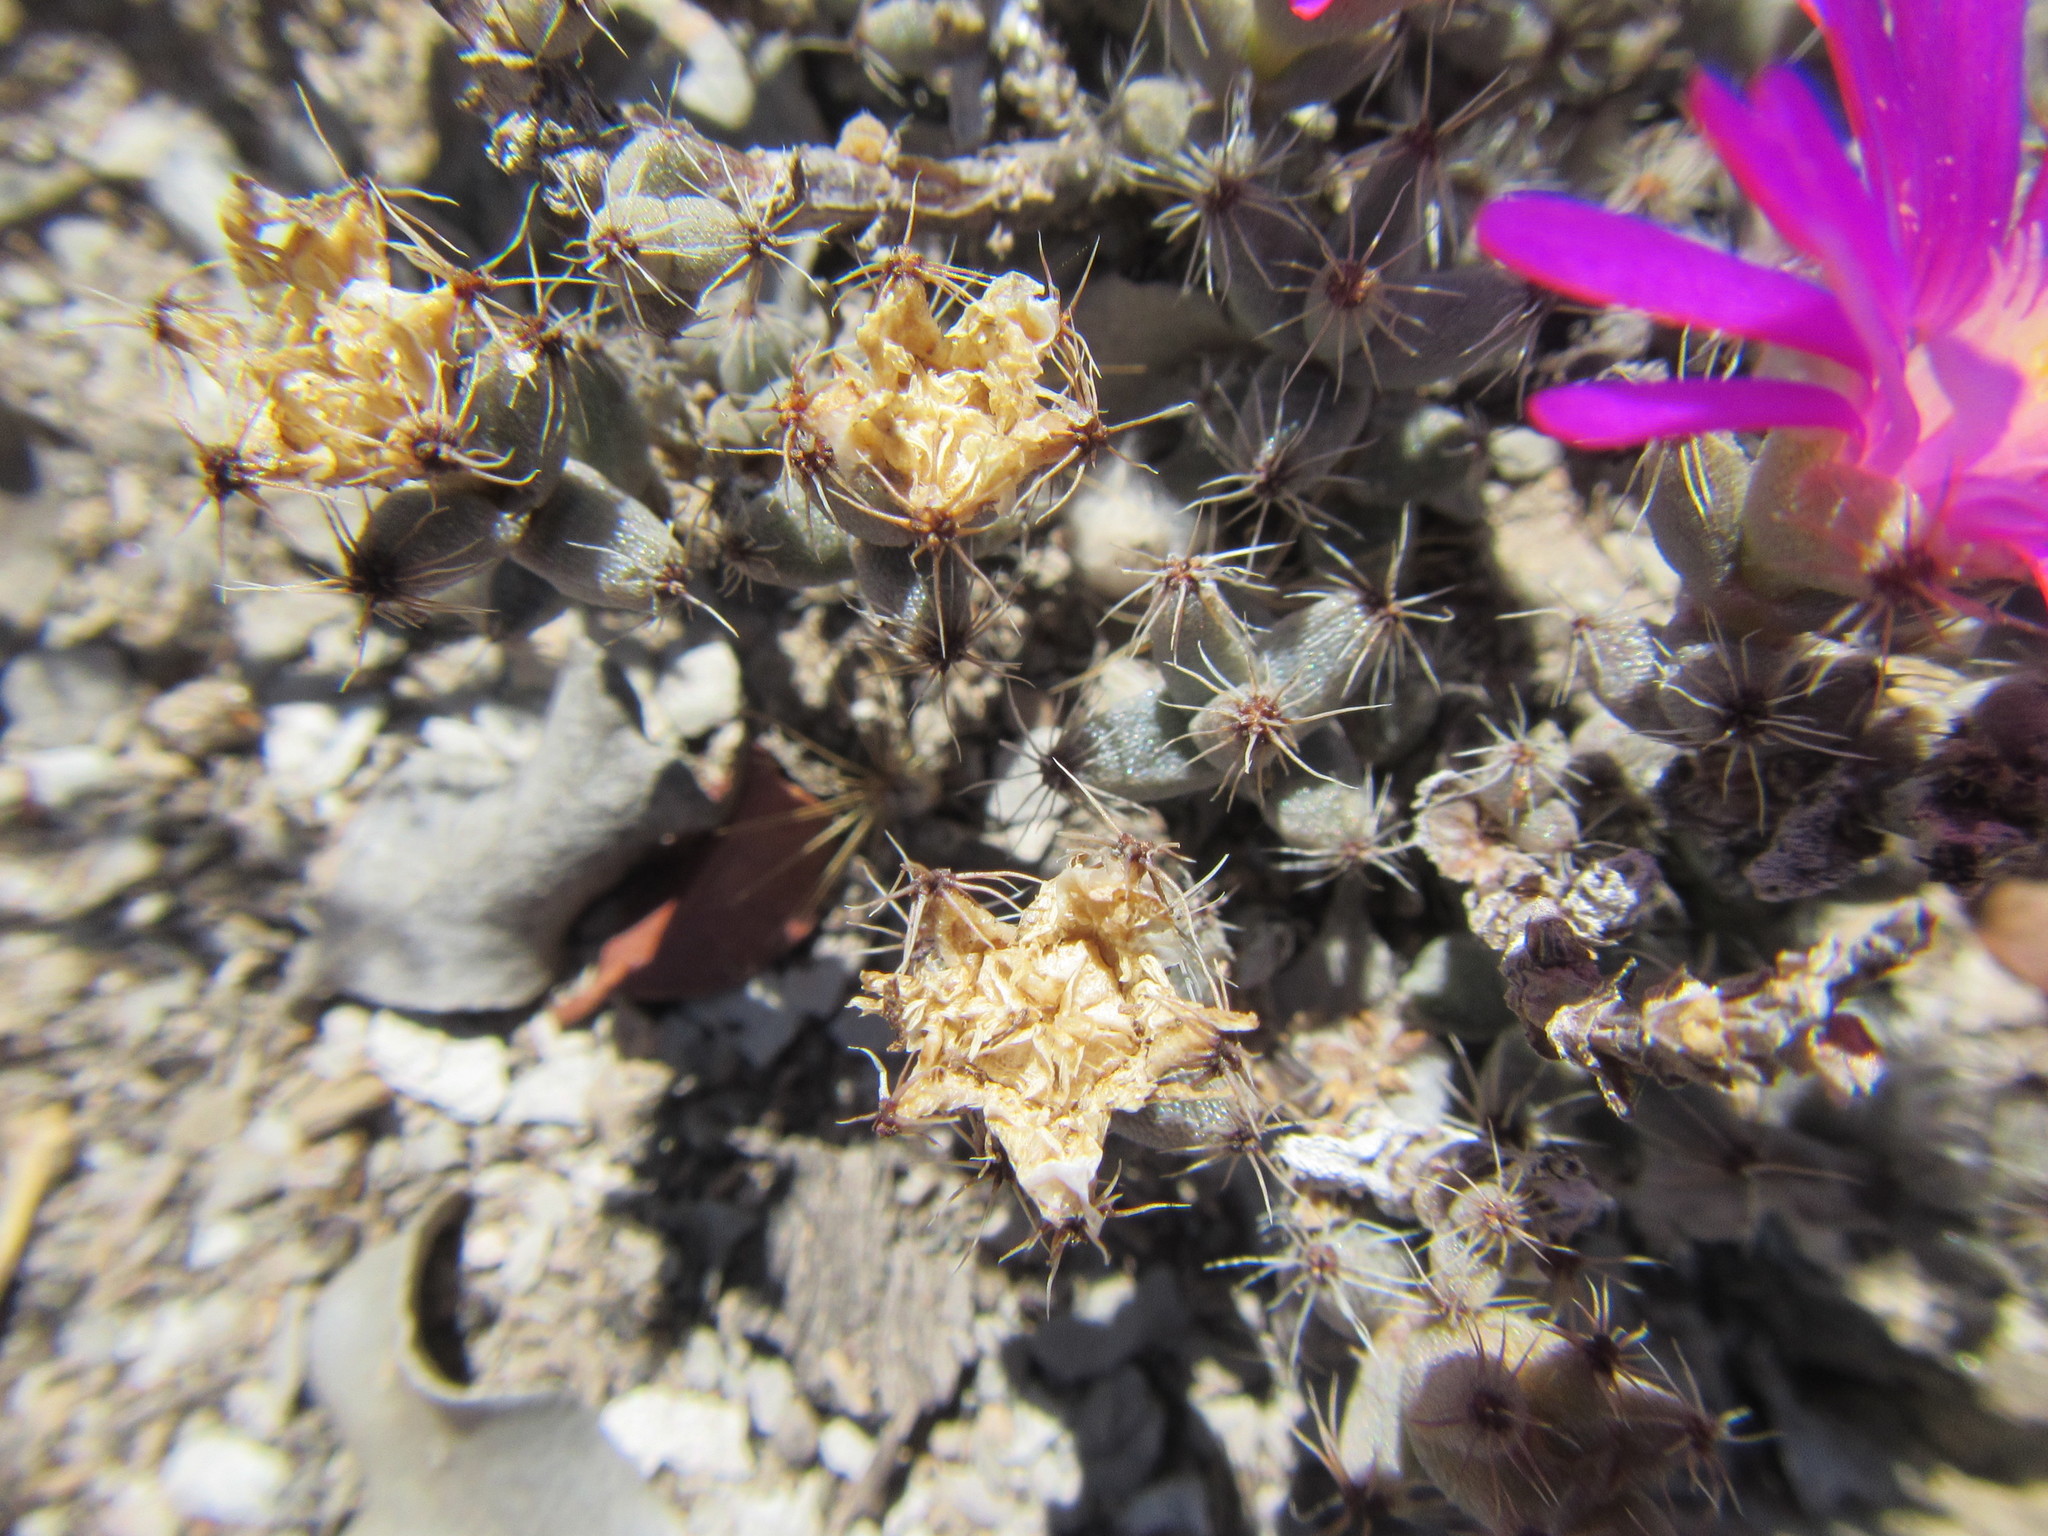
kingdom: Plantae
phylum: Tracheophyta
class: Magnoliopsida
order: Caryophyllales
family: Aizoaceae
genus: Trichodiadema
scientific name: Trichodiadema burgeri
